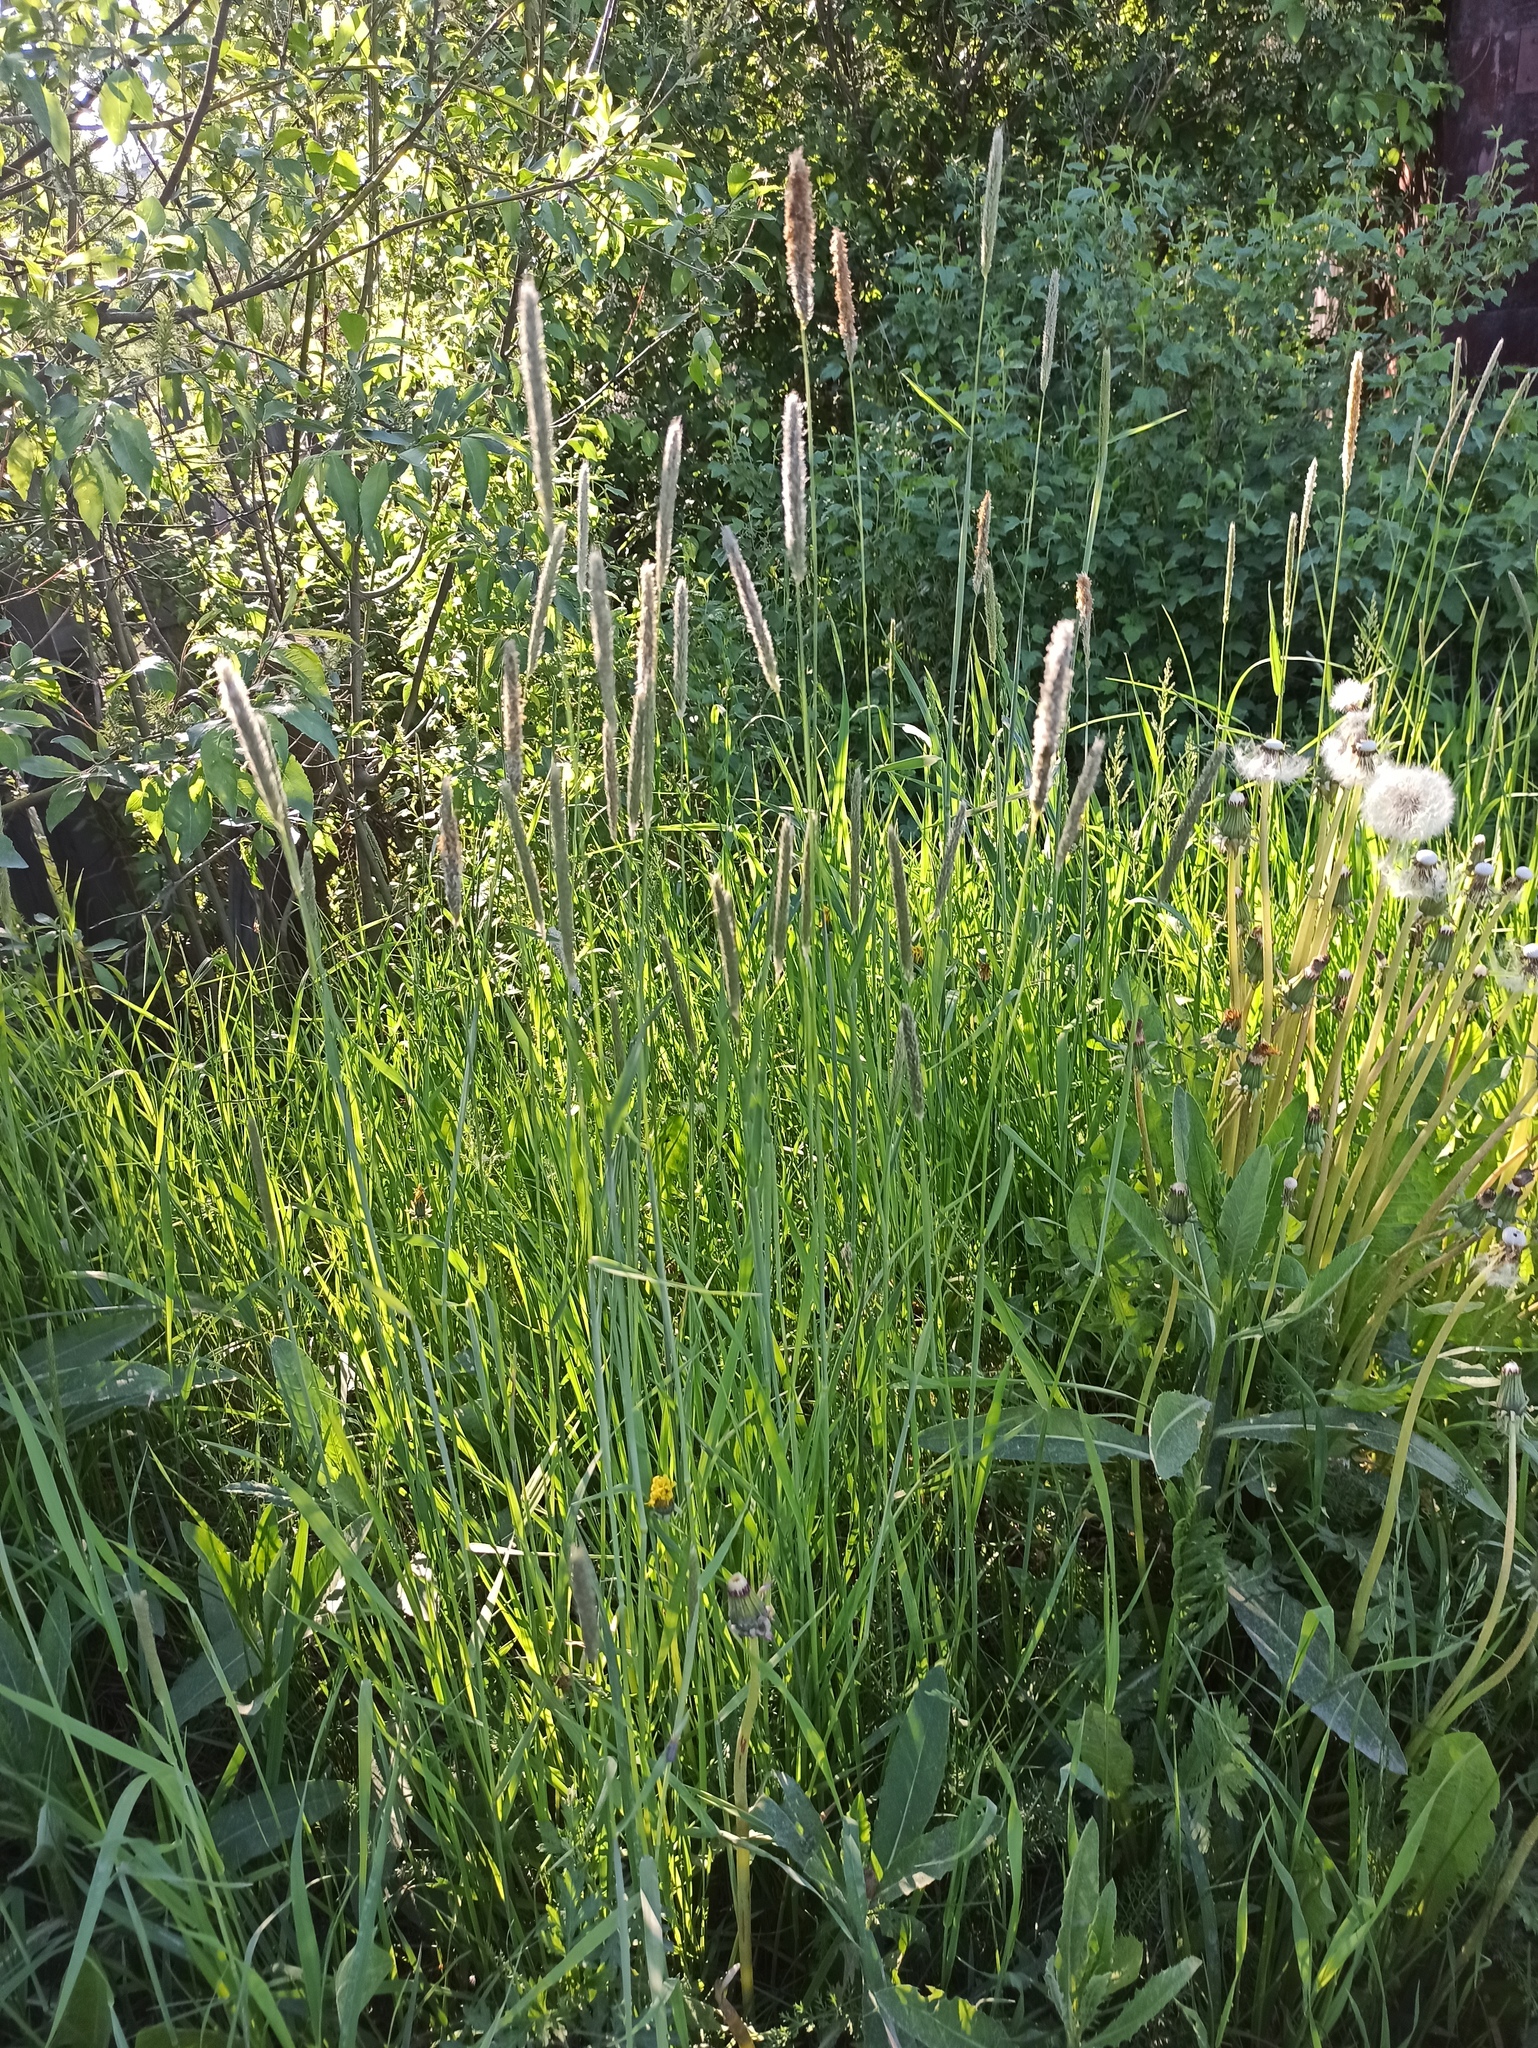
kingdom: Plantae
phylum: Tracheophyta
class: Liliopsida
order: Poales
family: Poaceae
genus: Alopecurus
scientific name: Alopecurus pratensis
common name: Meadow foxtail
